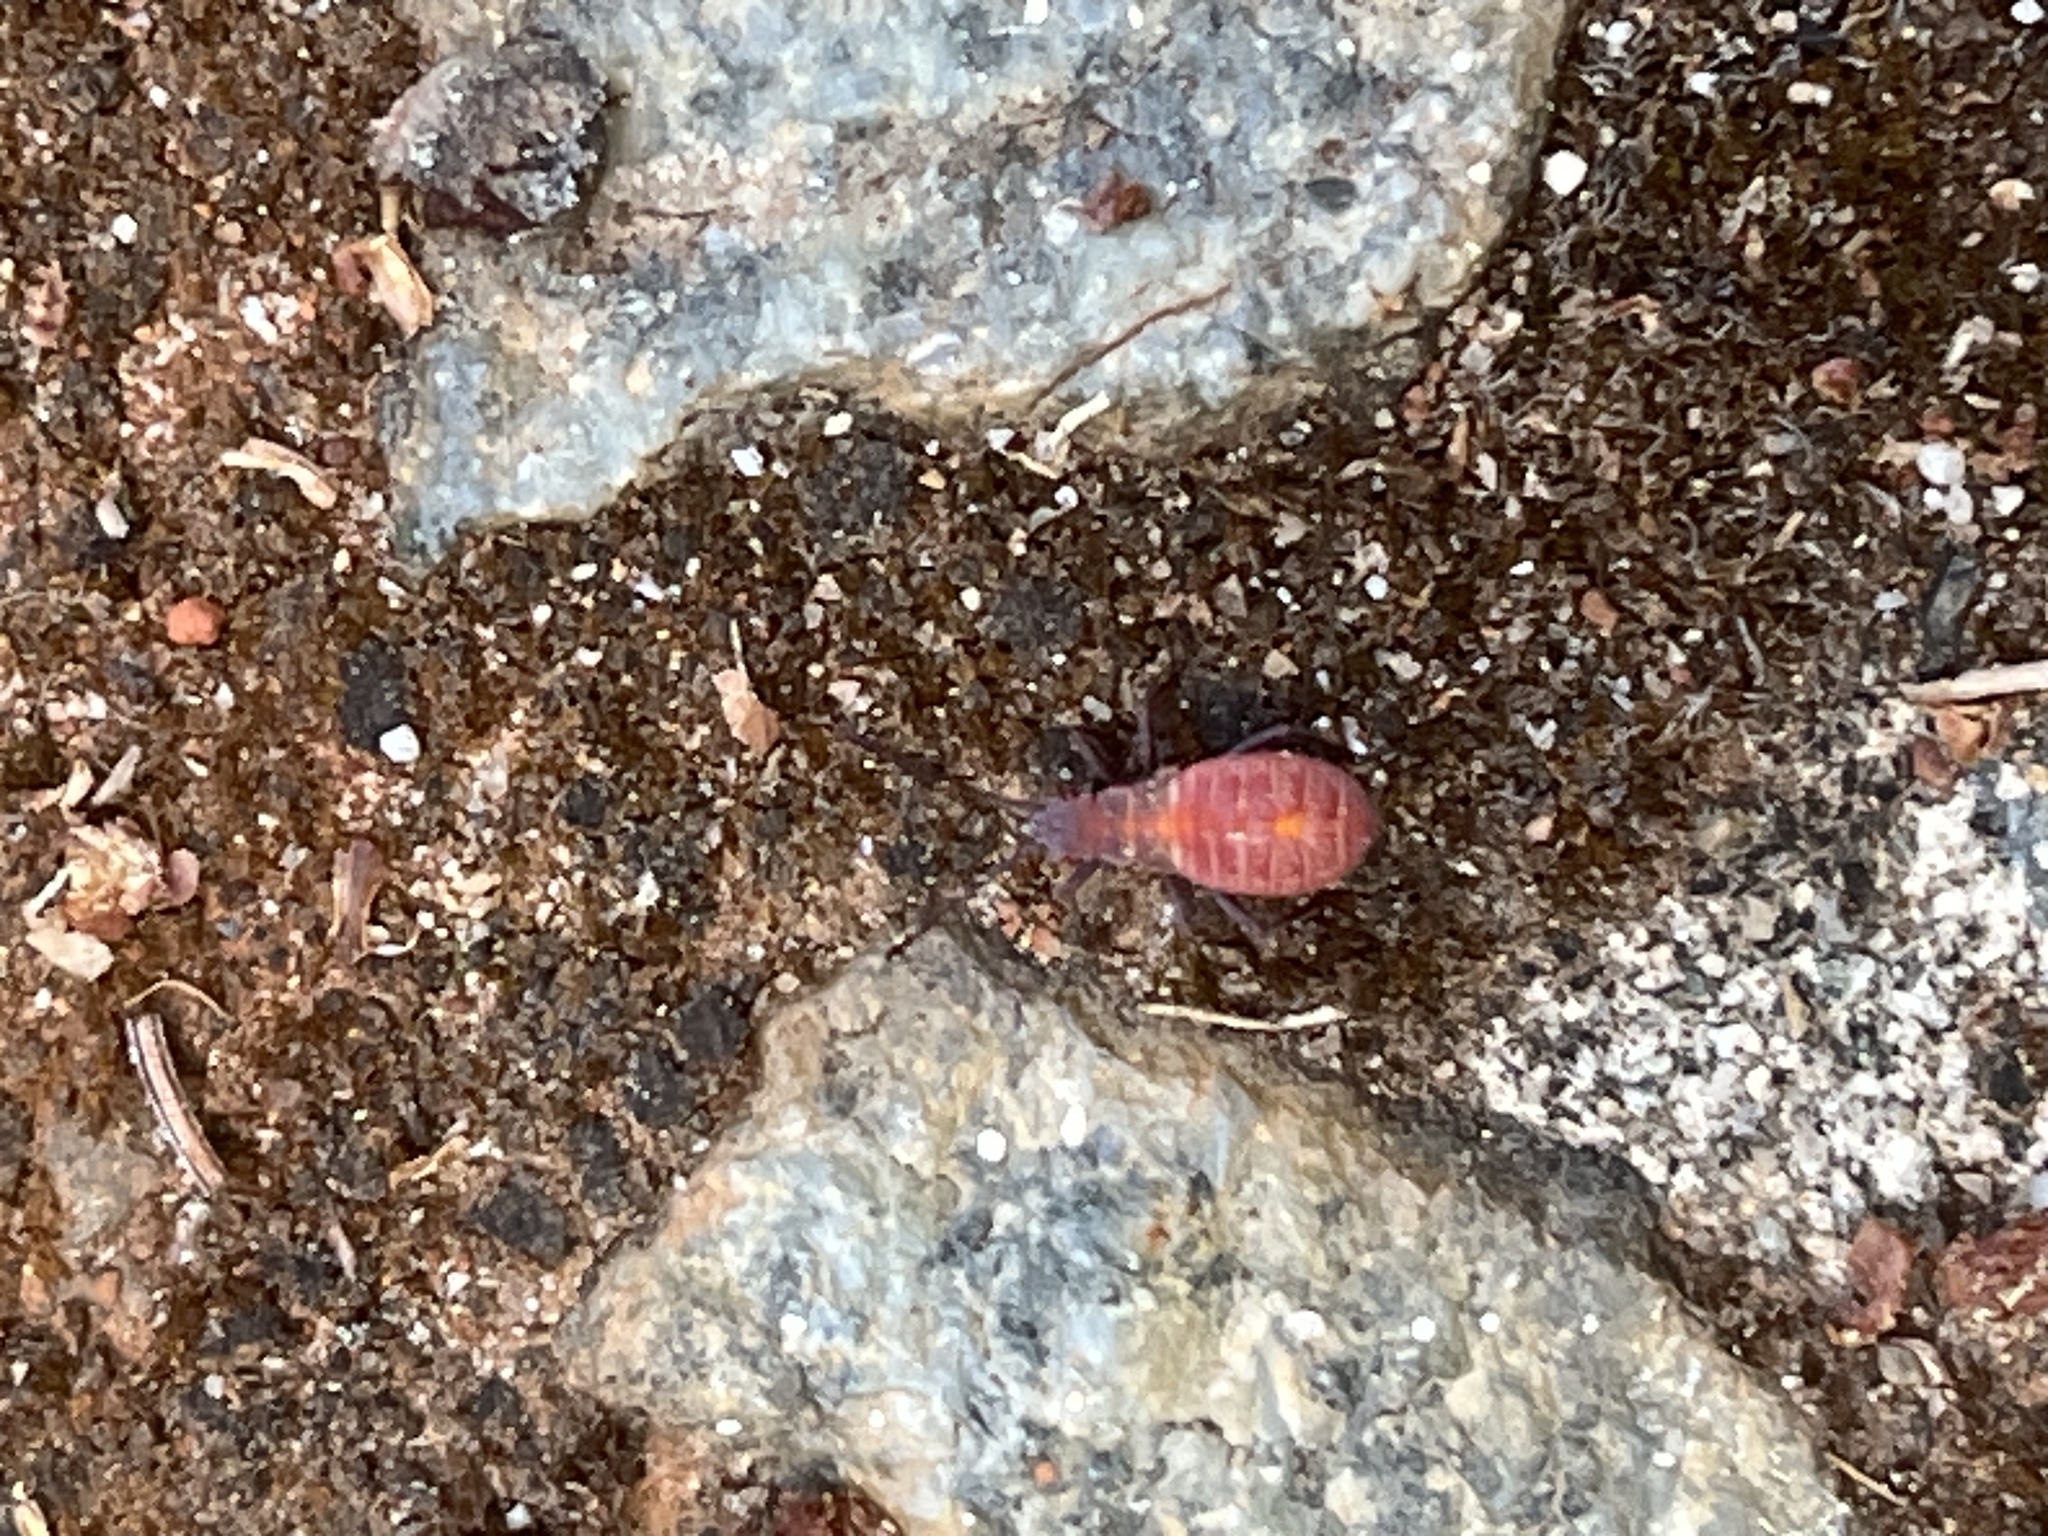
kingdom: Animalia
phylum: Arthropoda
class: Insecta
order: Hemiptera
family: Rhopalidae
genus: Boisea
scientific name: Boisea rubrolineata
